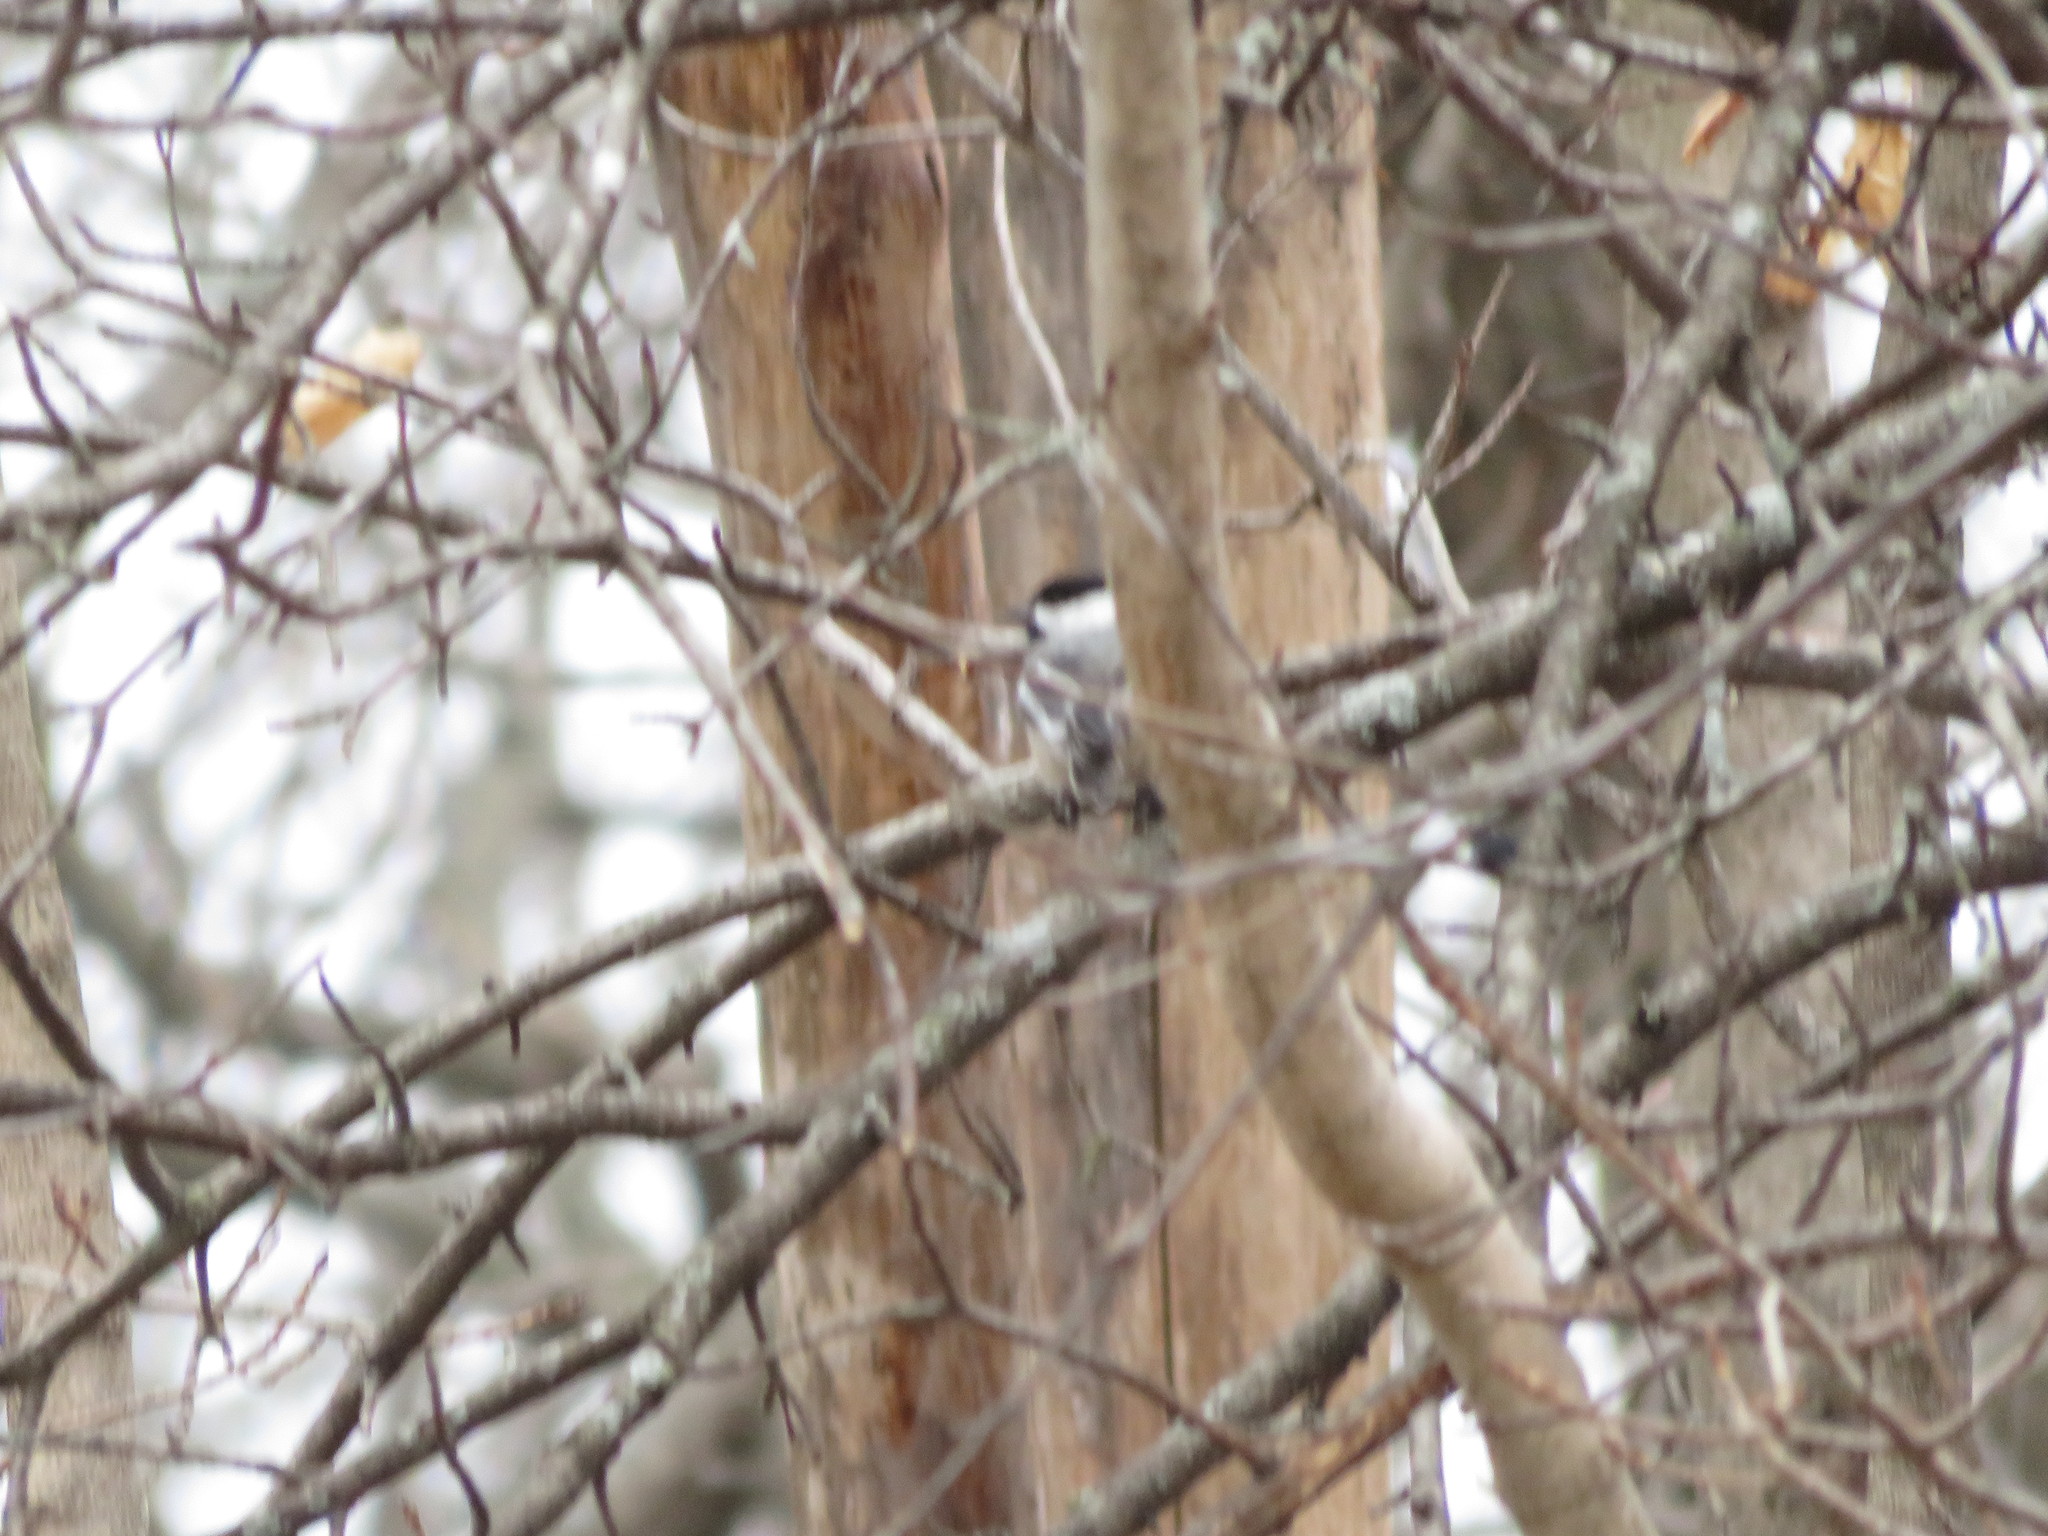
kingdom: Animalia
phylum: Chordata
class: Aves
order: Passeriformes
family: Paridae
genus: Poecile
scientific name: Poecile atricapillus
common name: Black-capped chickadee
